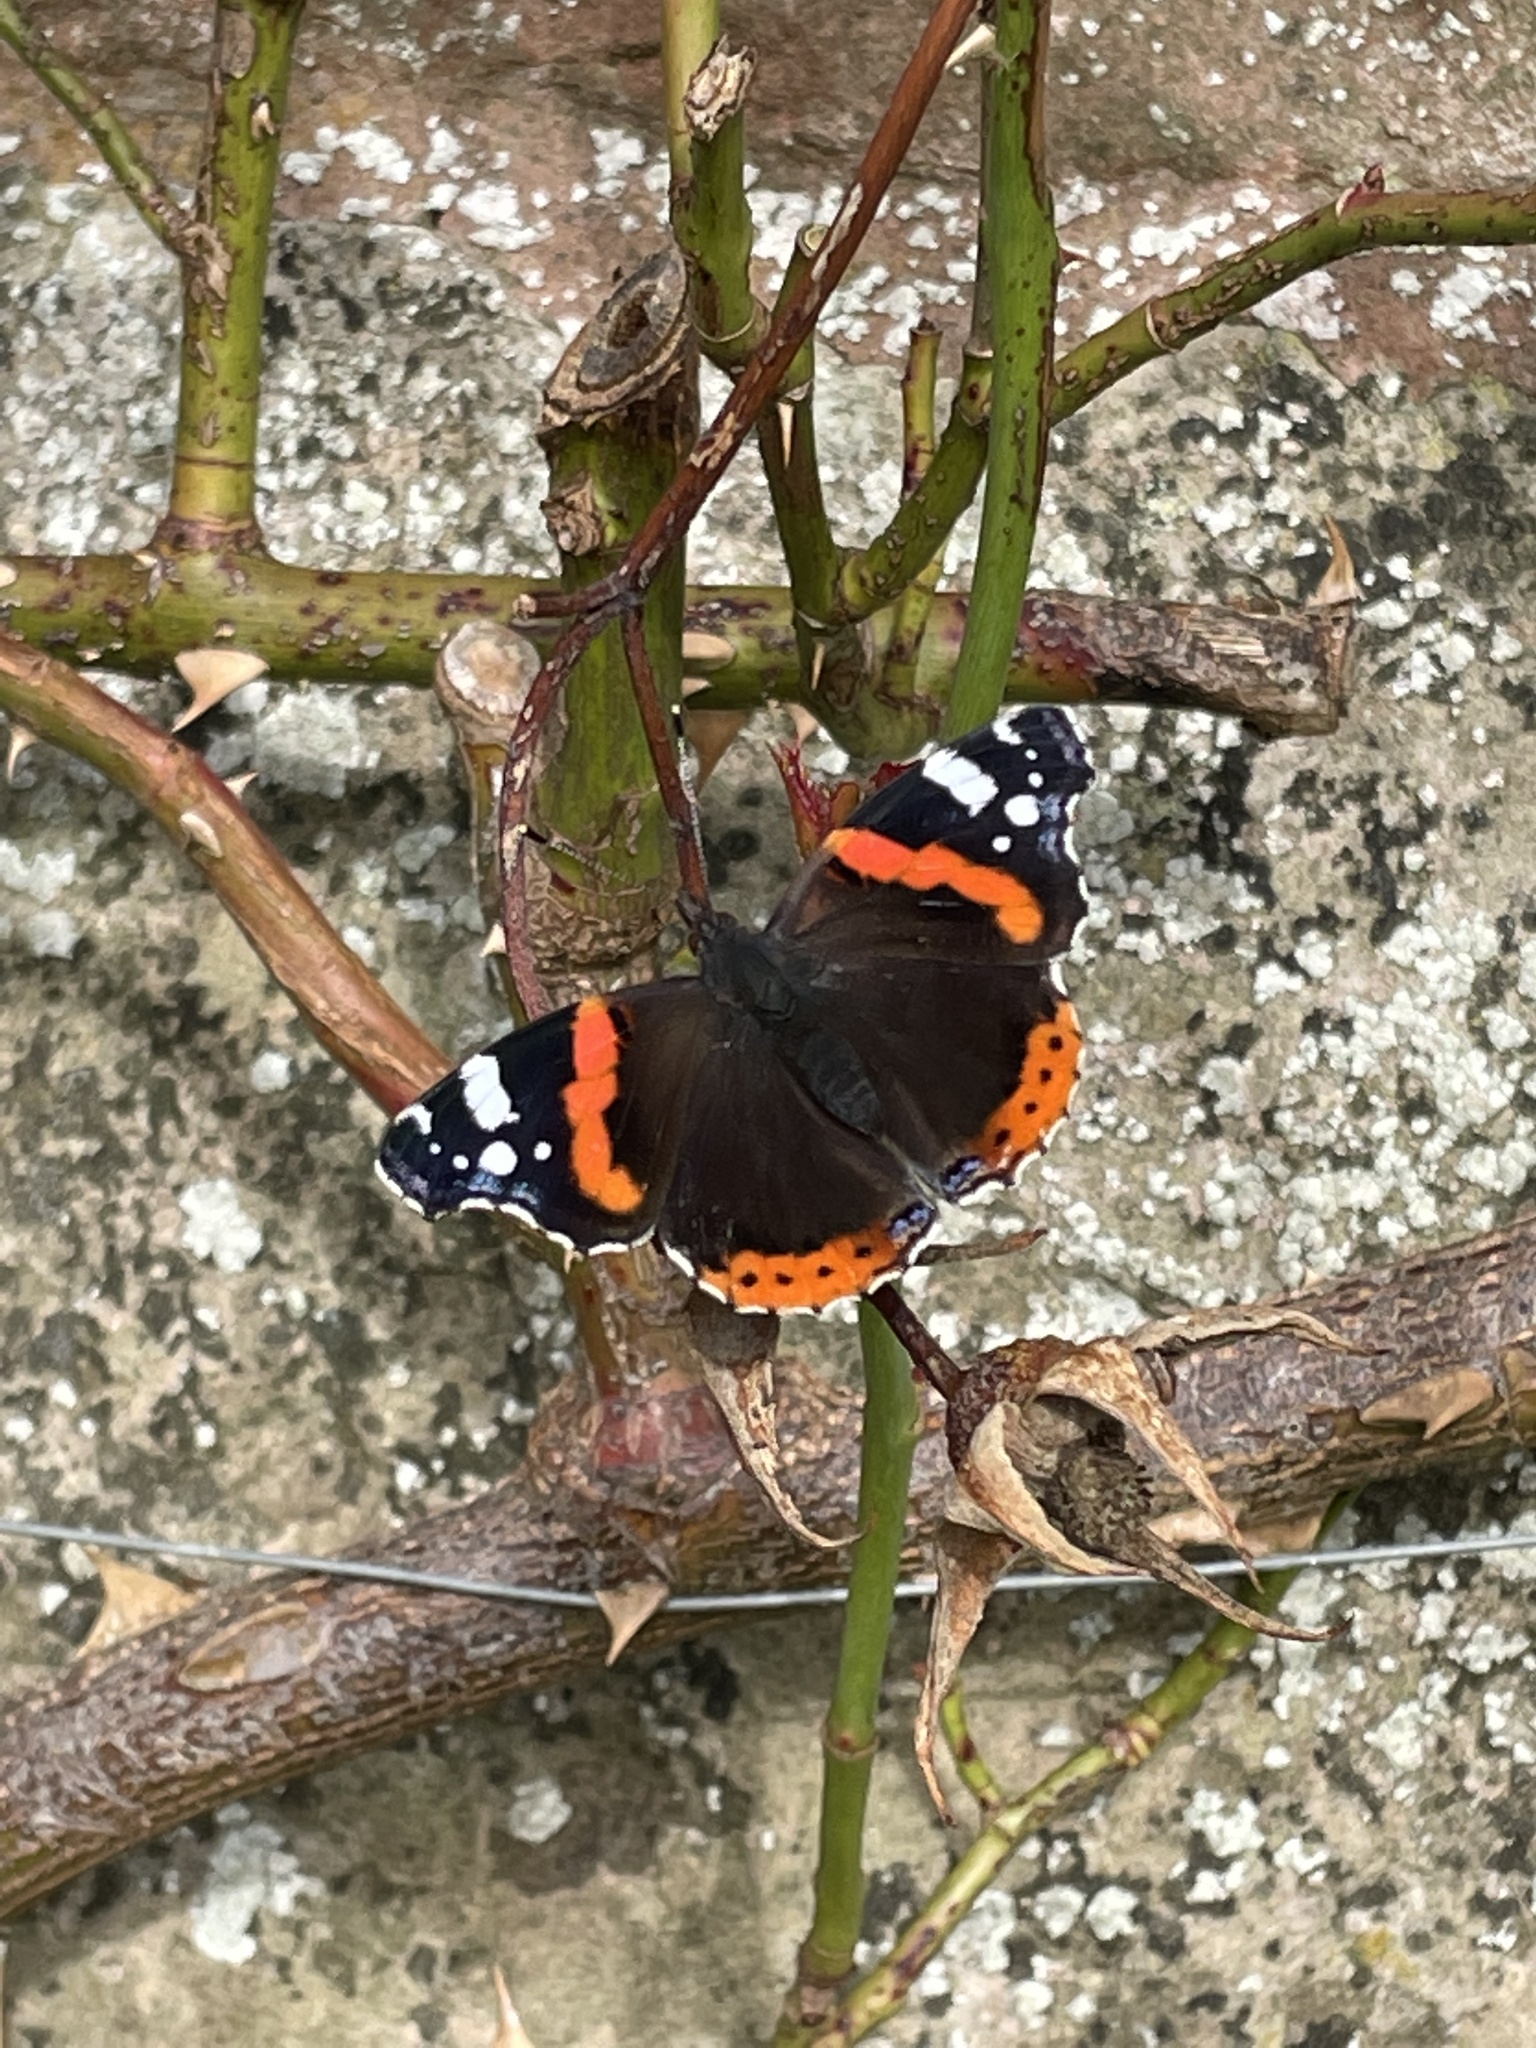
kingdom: Animalia
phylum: Arthropoda
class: Insecta
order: Lepidoptera
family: Nymphalidae
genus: Vanessa
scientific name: Vanessa atalanta
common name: Red admiral
